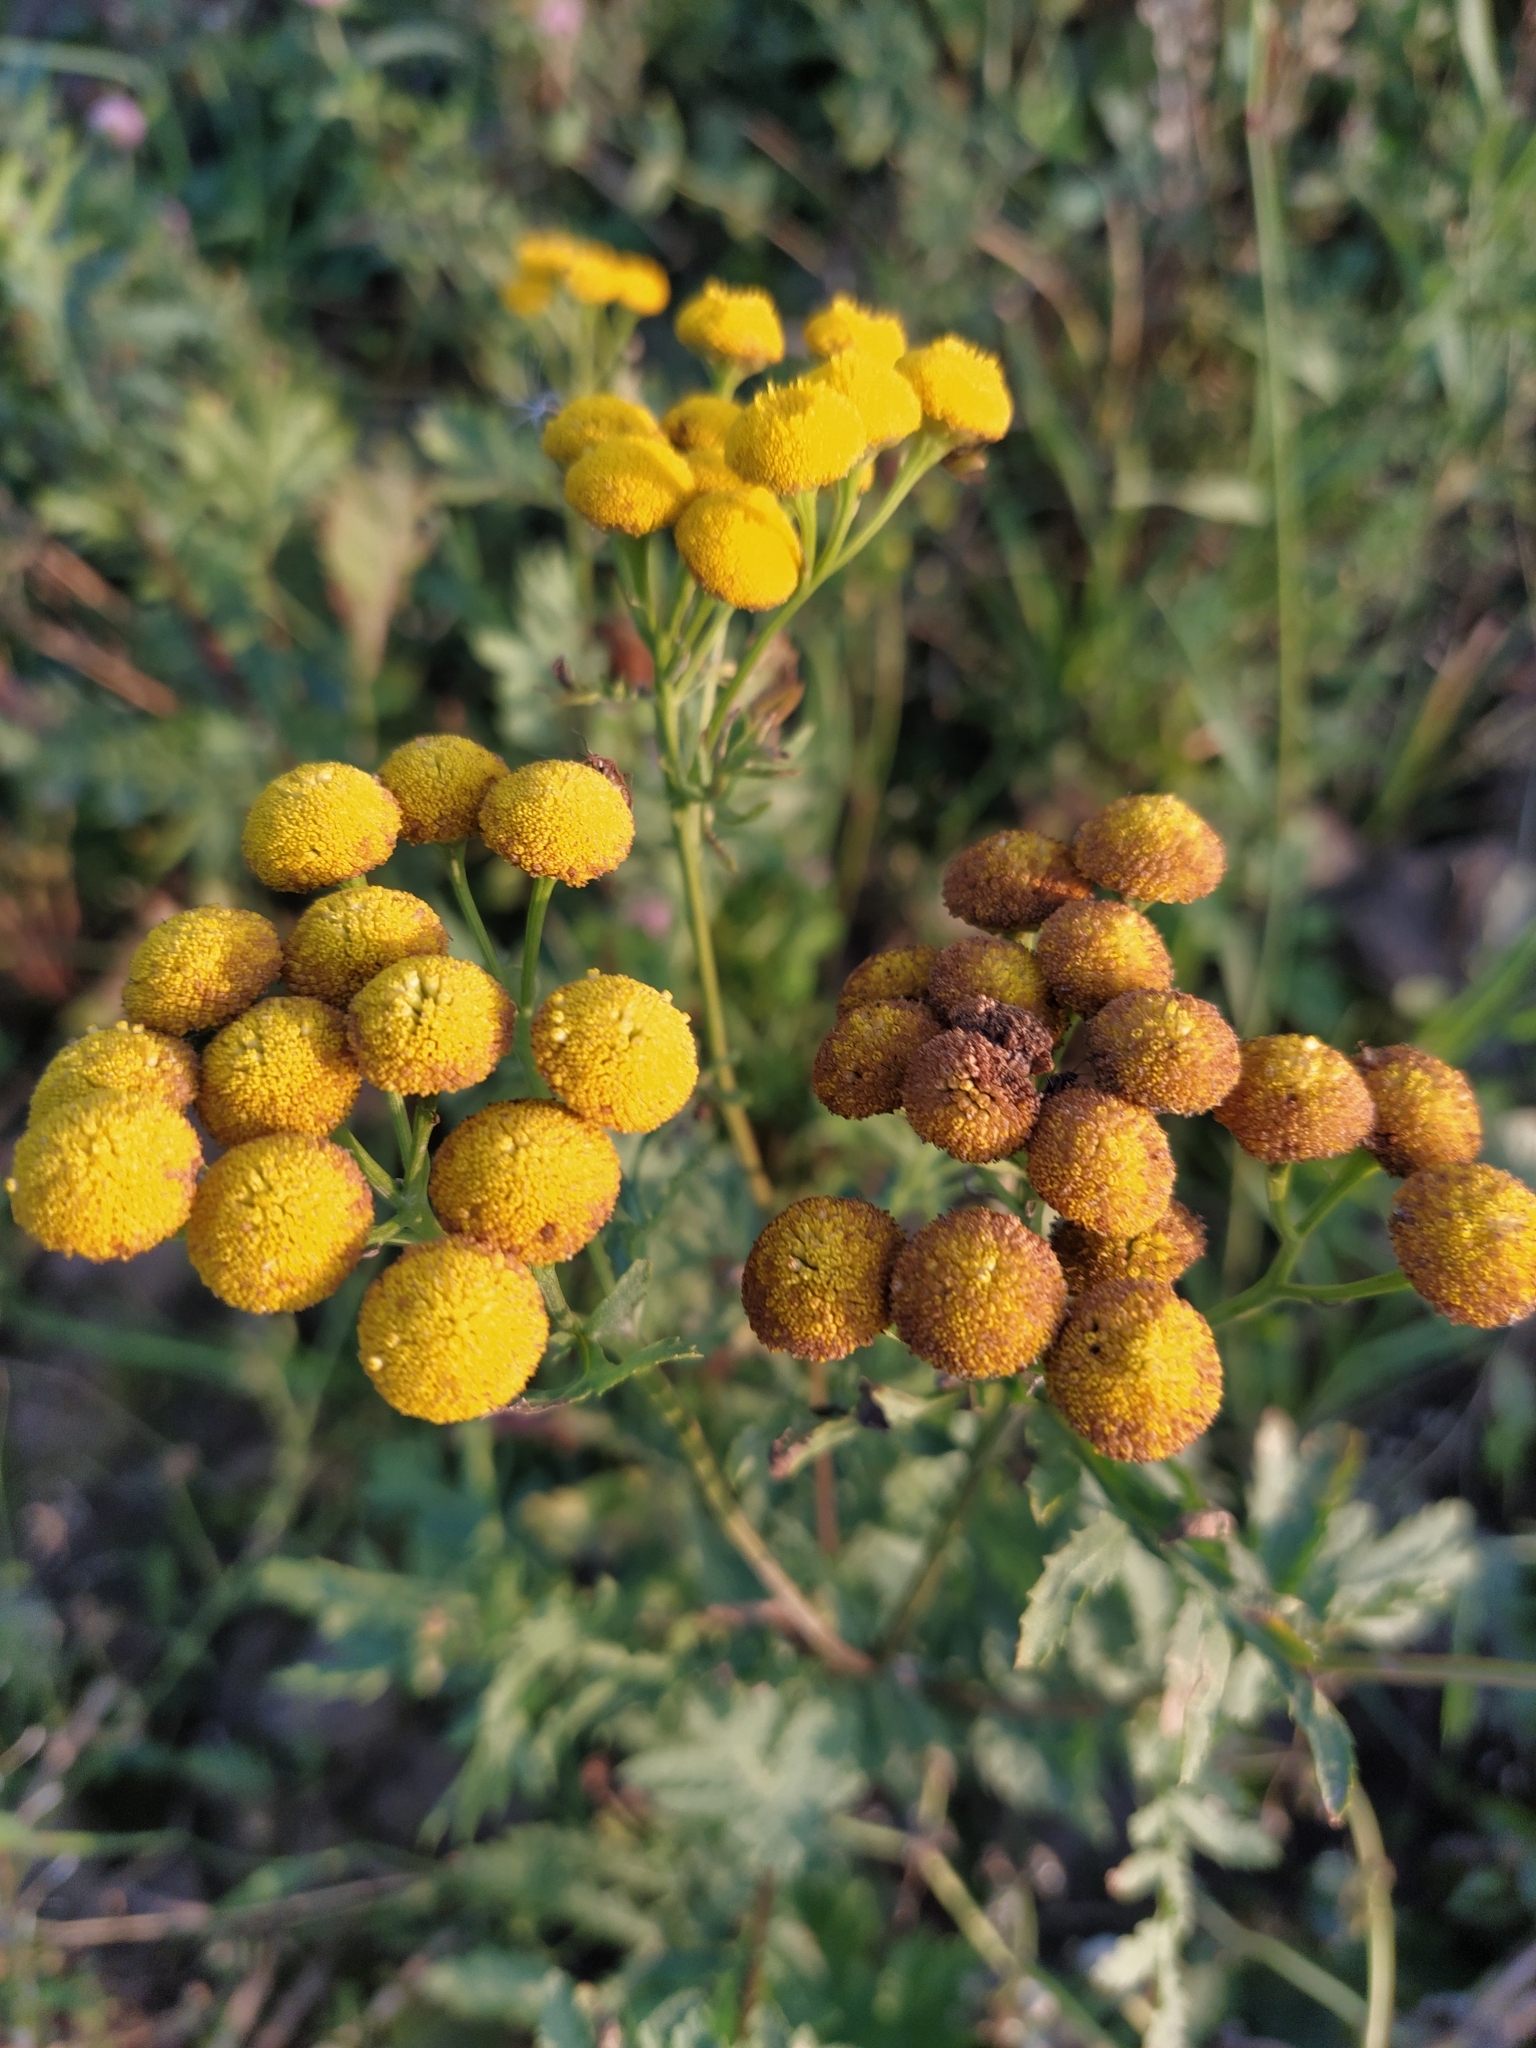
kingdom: Plantae
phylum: Tracheophyta
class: Magnoliopsida
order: Asterales
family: Asteraceae
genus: Tanacetum
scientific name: Tanacetum vulgare
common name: Common tansy
